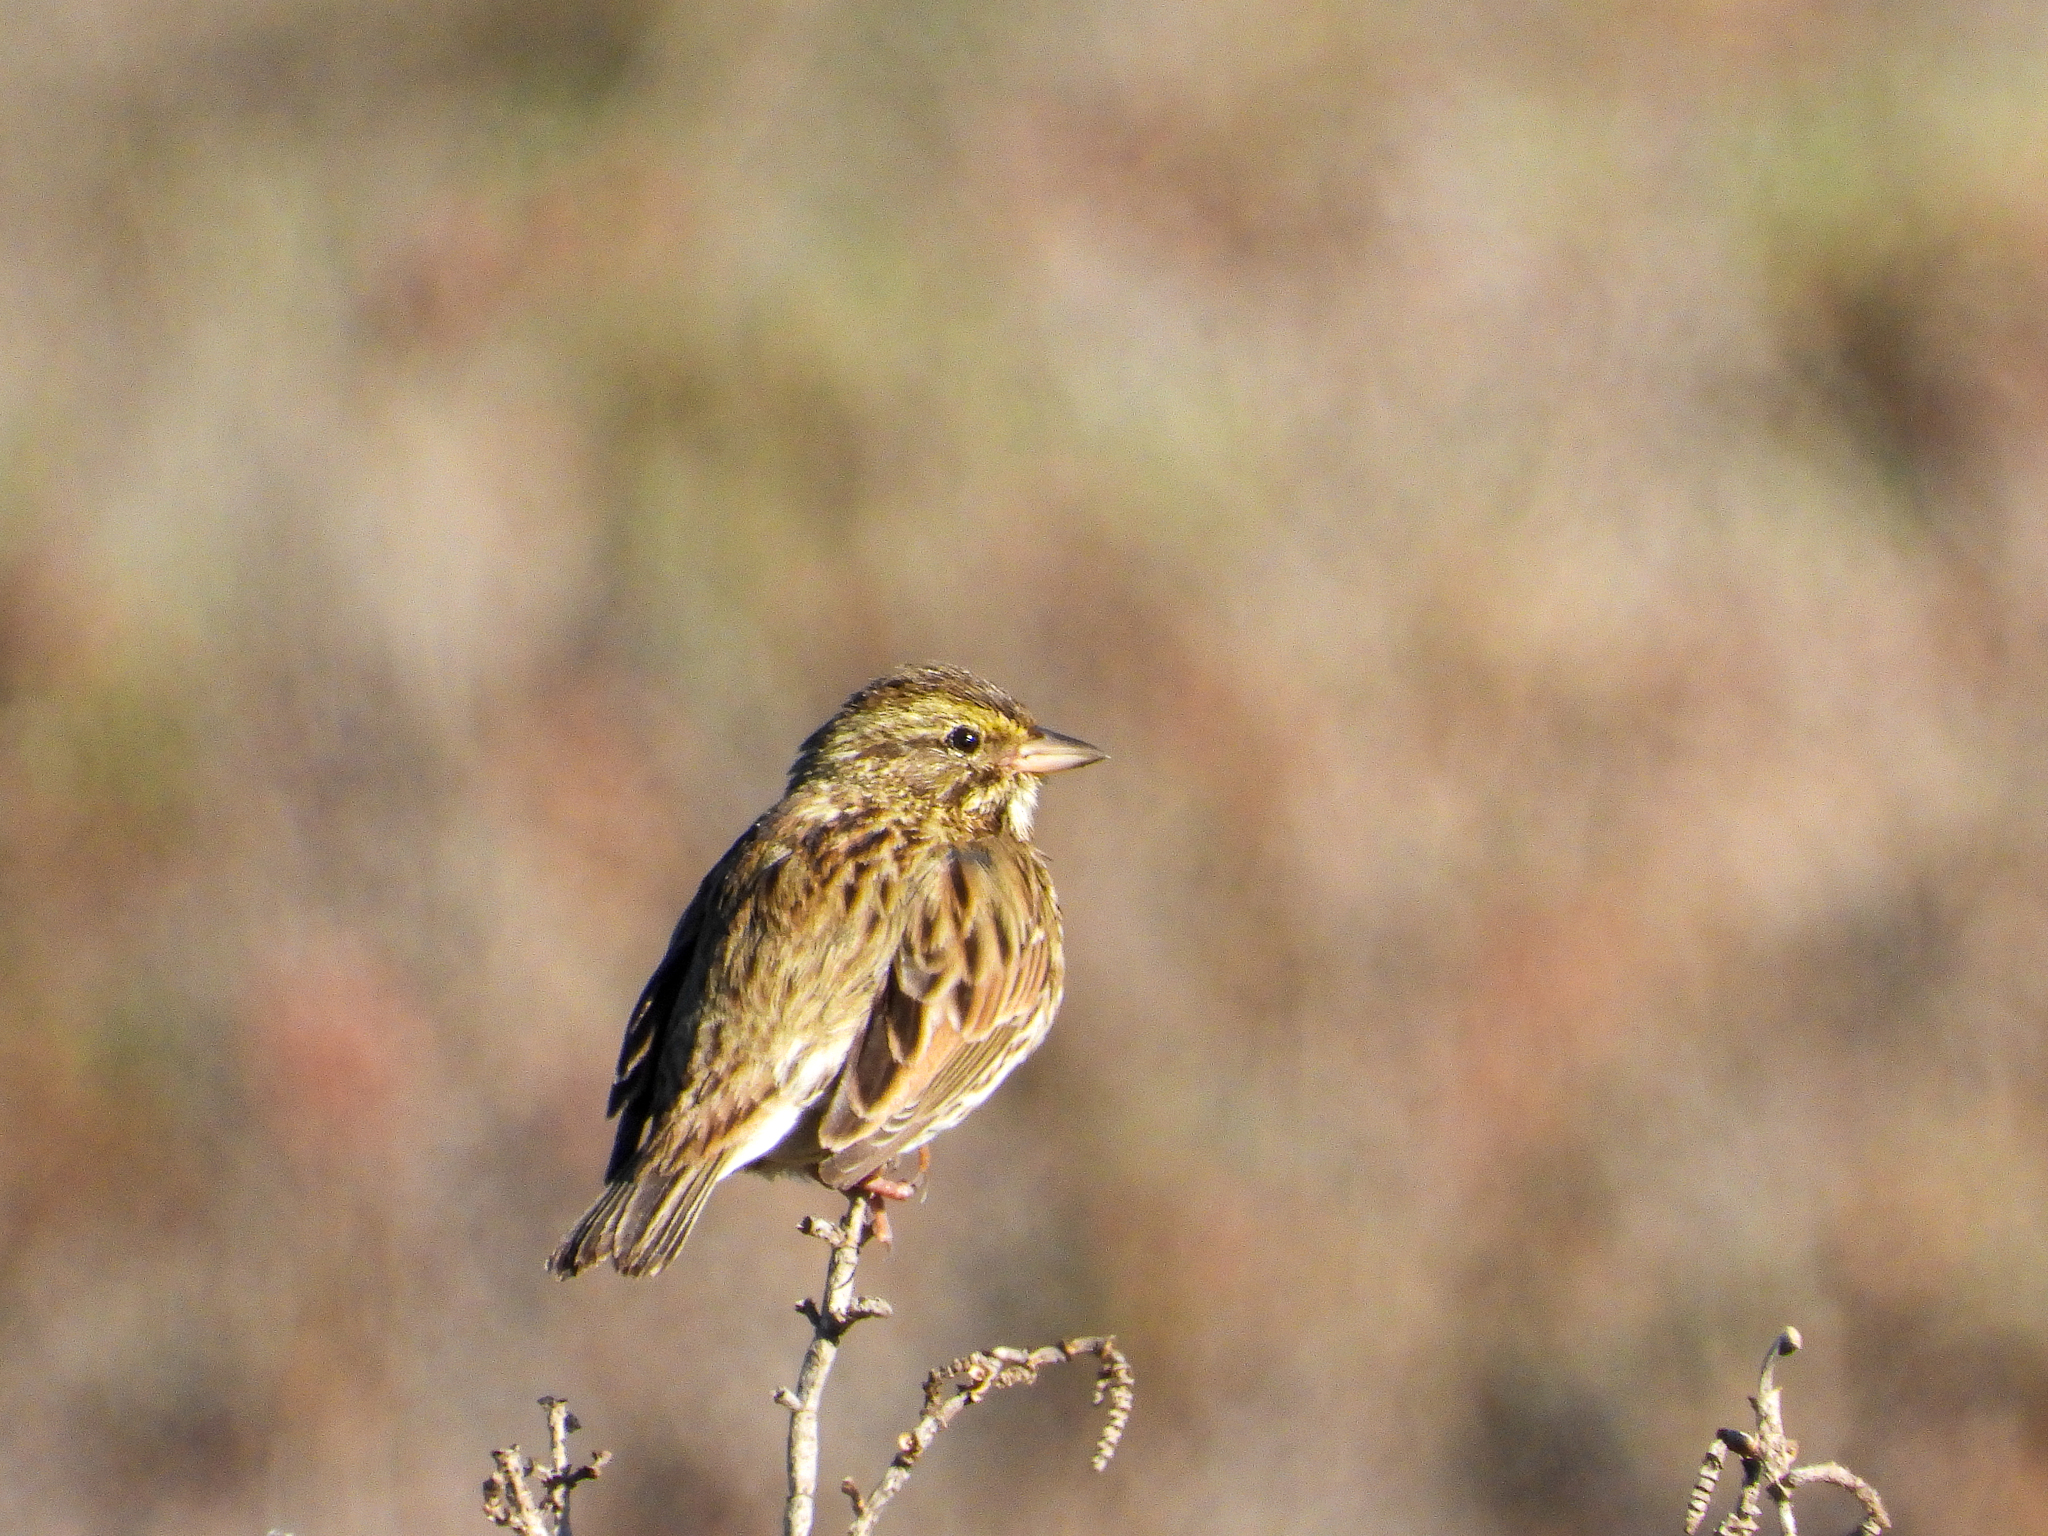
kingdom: Animalia
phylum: Chordata
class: Aves
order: Passeriformes
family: Passerellidae
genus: Passerculus
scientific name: Passerculus sandwichensis
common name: Savannah sparrow
